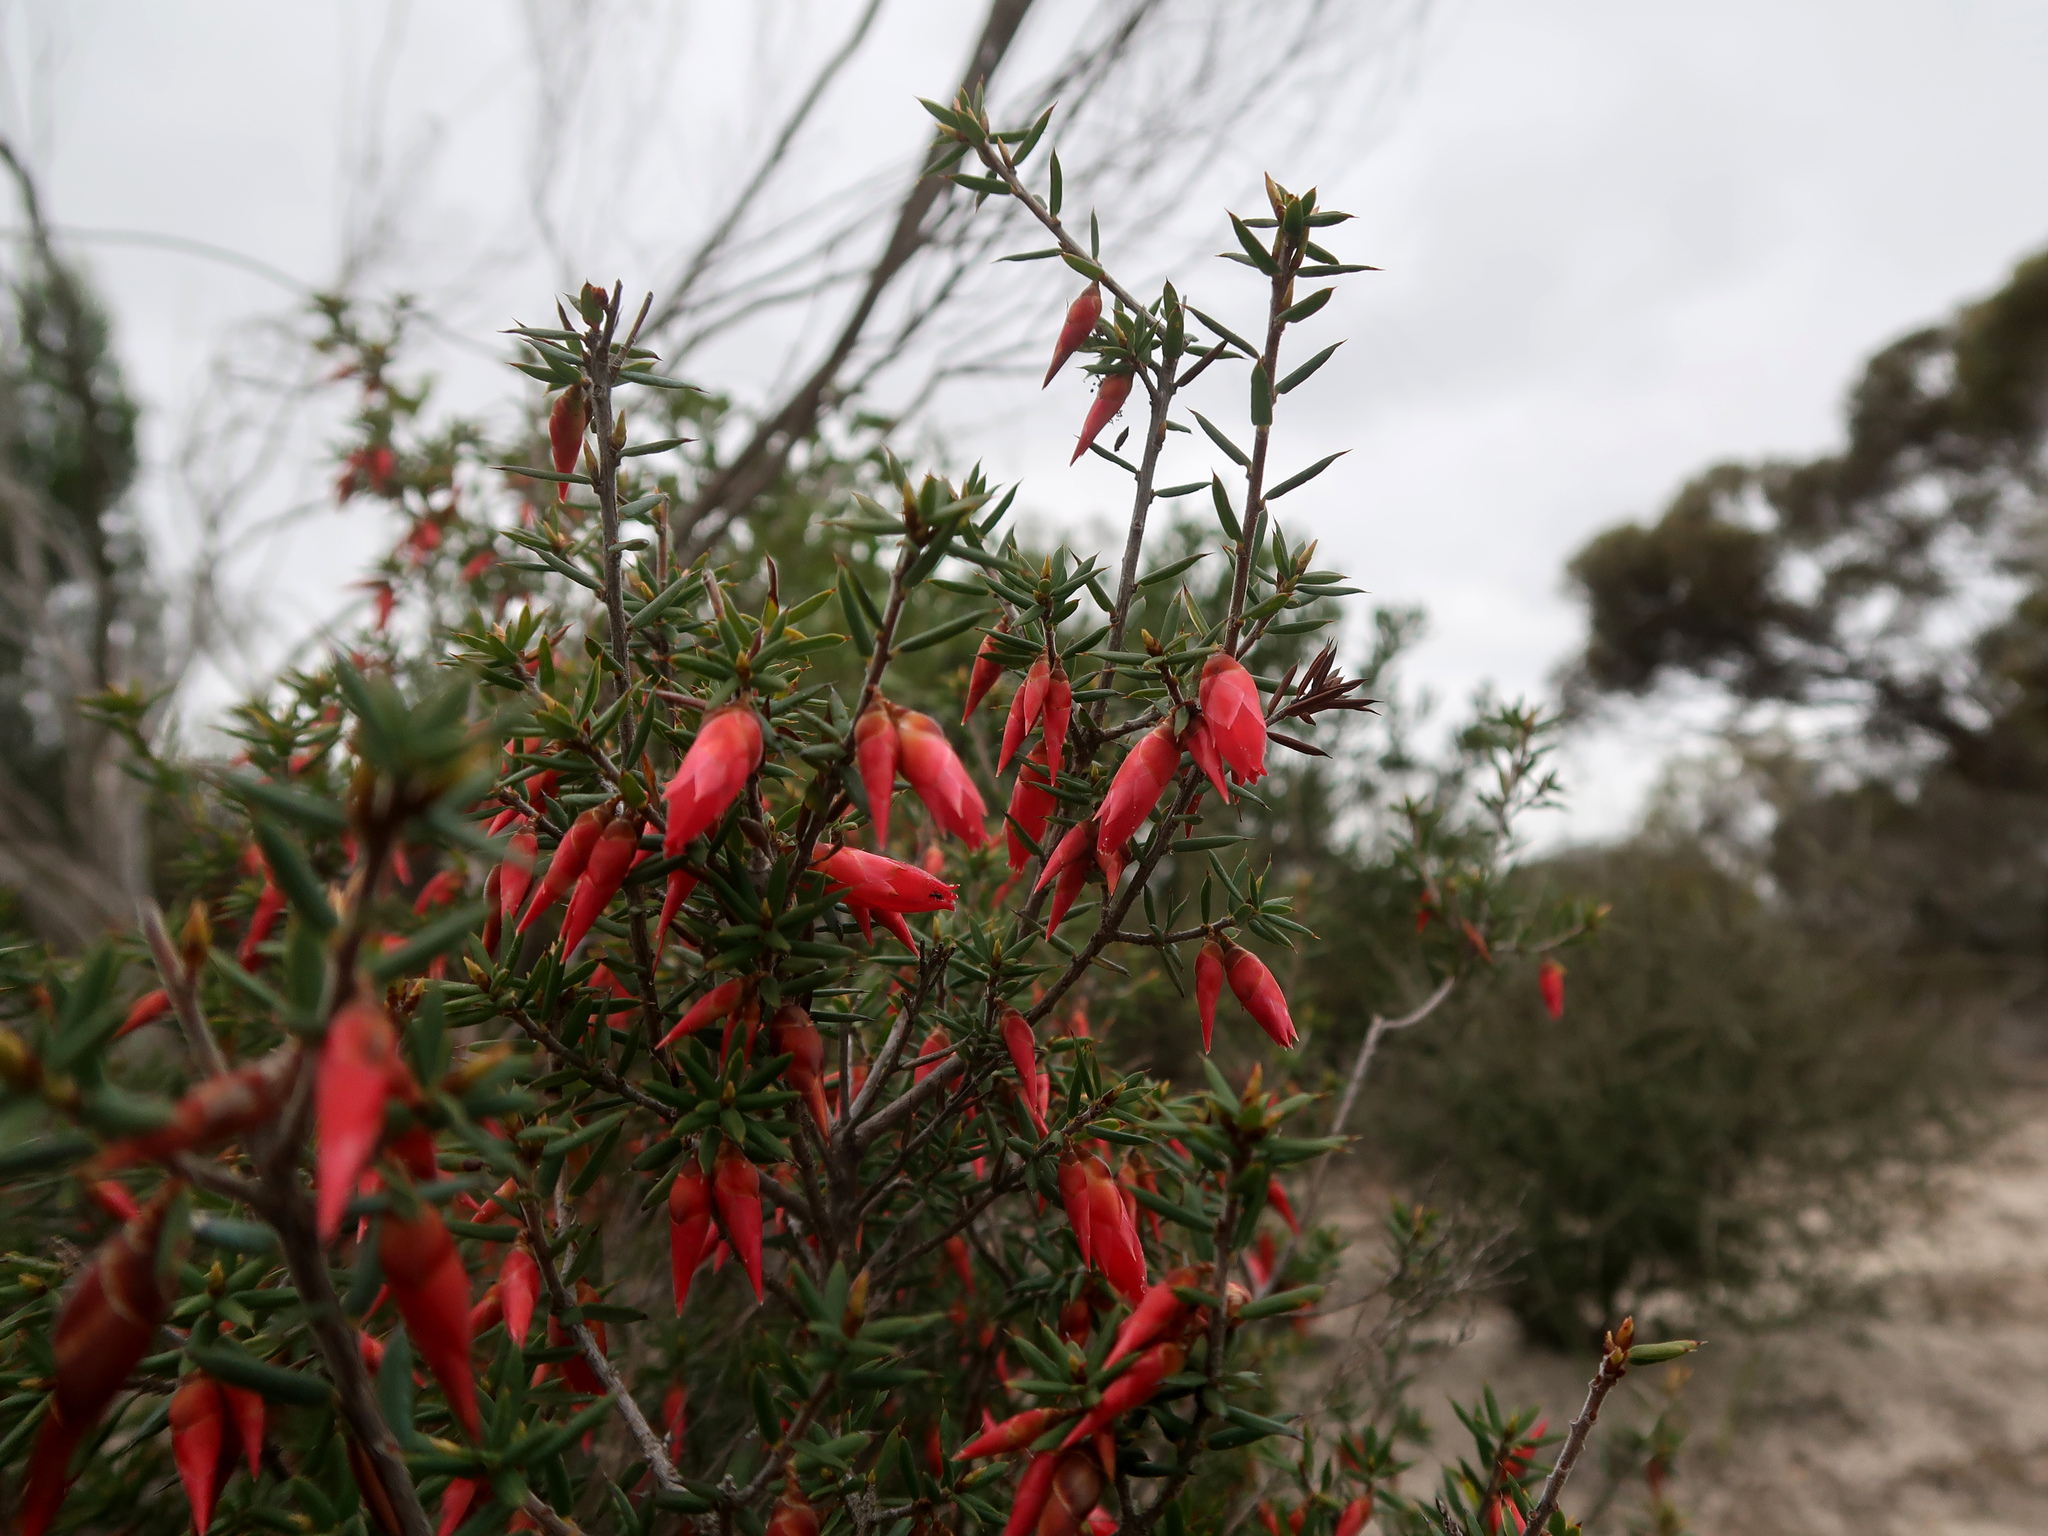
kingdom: Plantae
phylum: Tracheophyta
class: Magnoliopsida
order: Ericales
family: Ericaceae
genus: Stenanthera
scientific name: Stenanthera conostephioides
